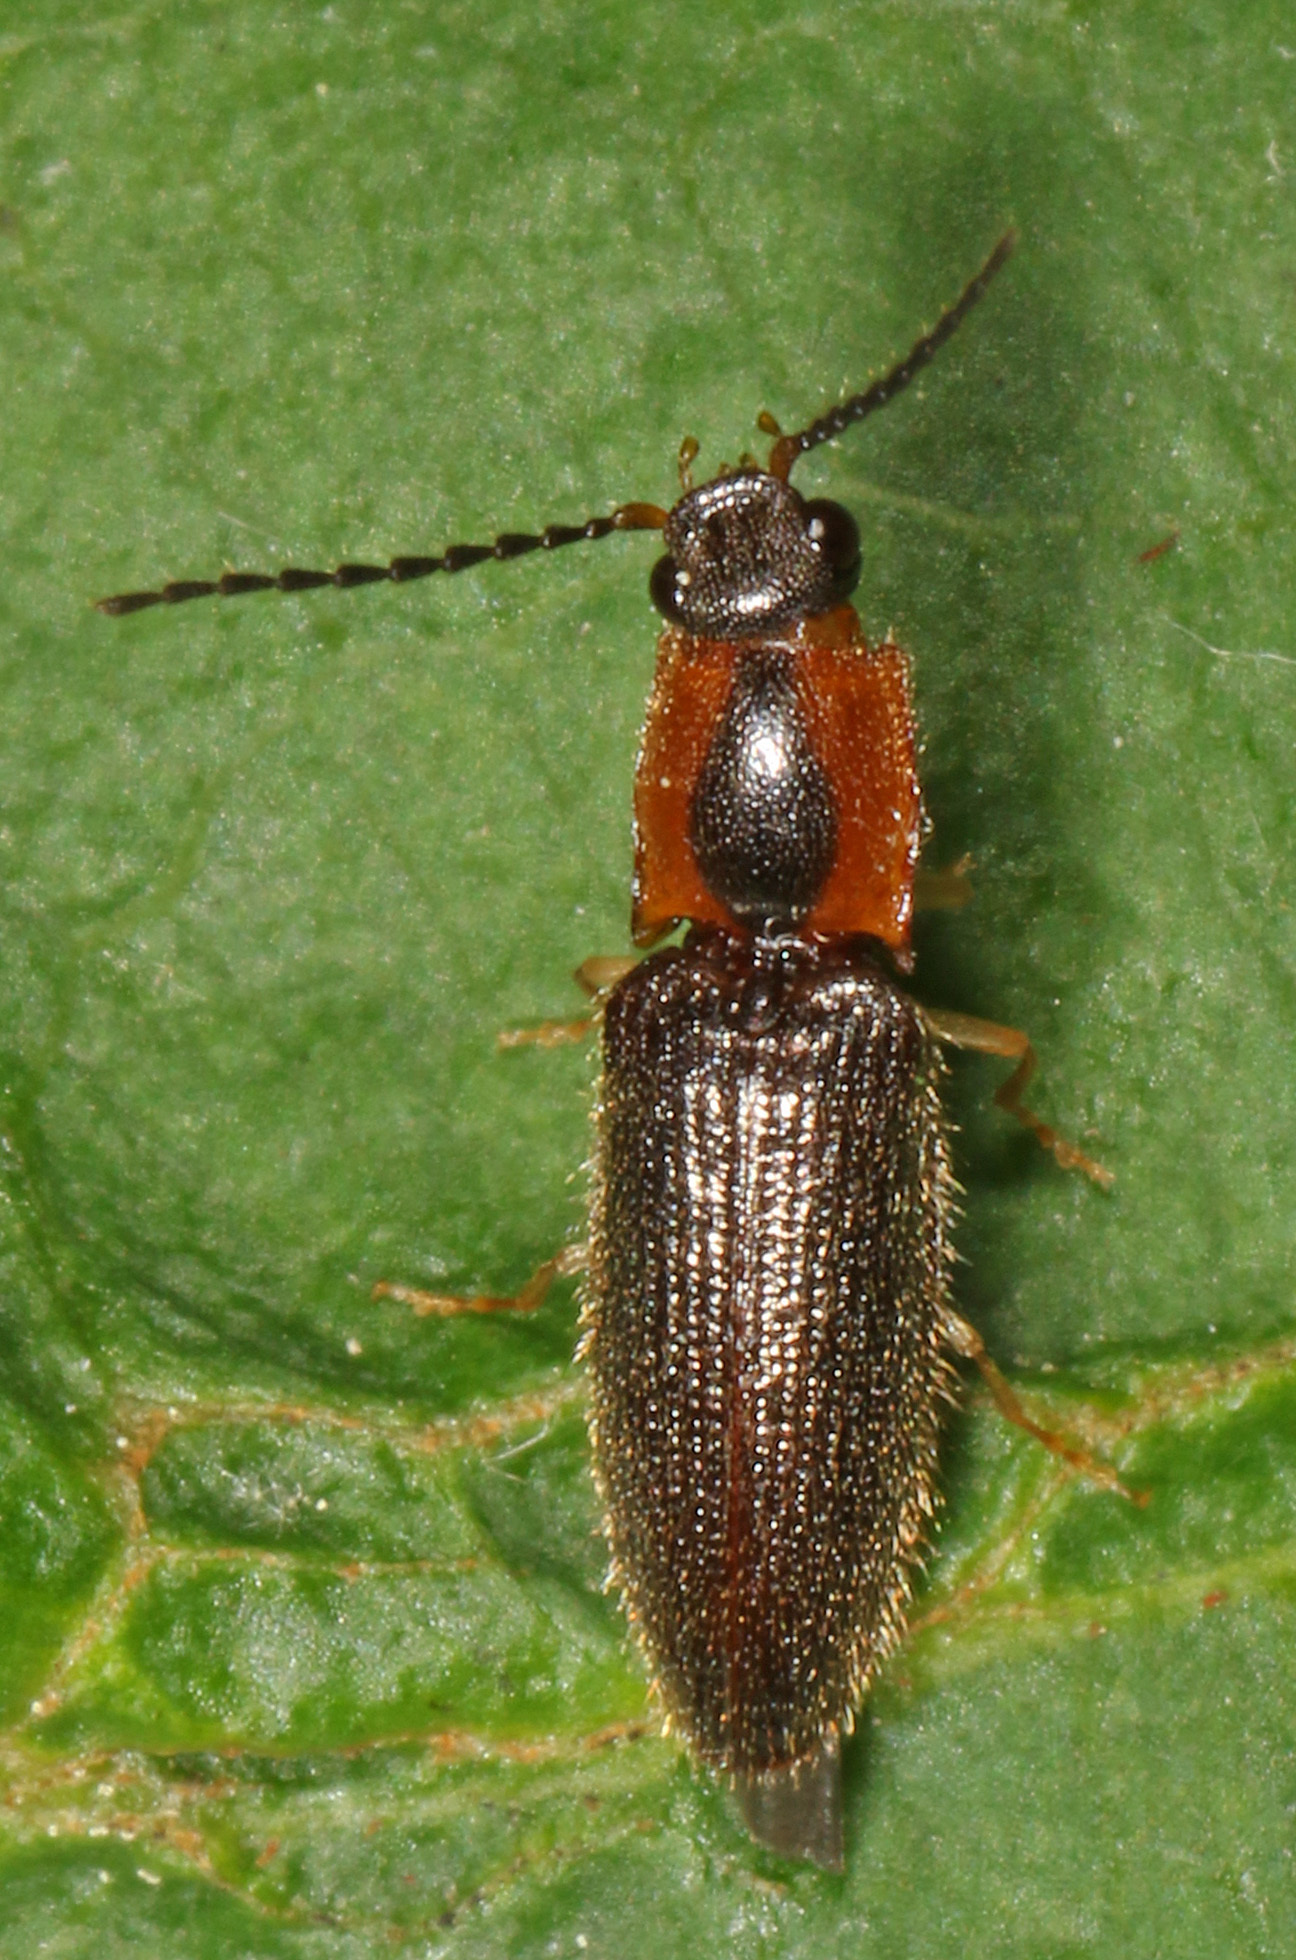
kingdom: Animalia
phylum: Arthropoda
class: Insecta
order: Coleoptera
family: Elateridae
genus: Athous
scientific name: Athous neacanthus
